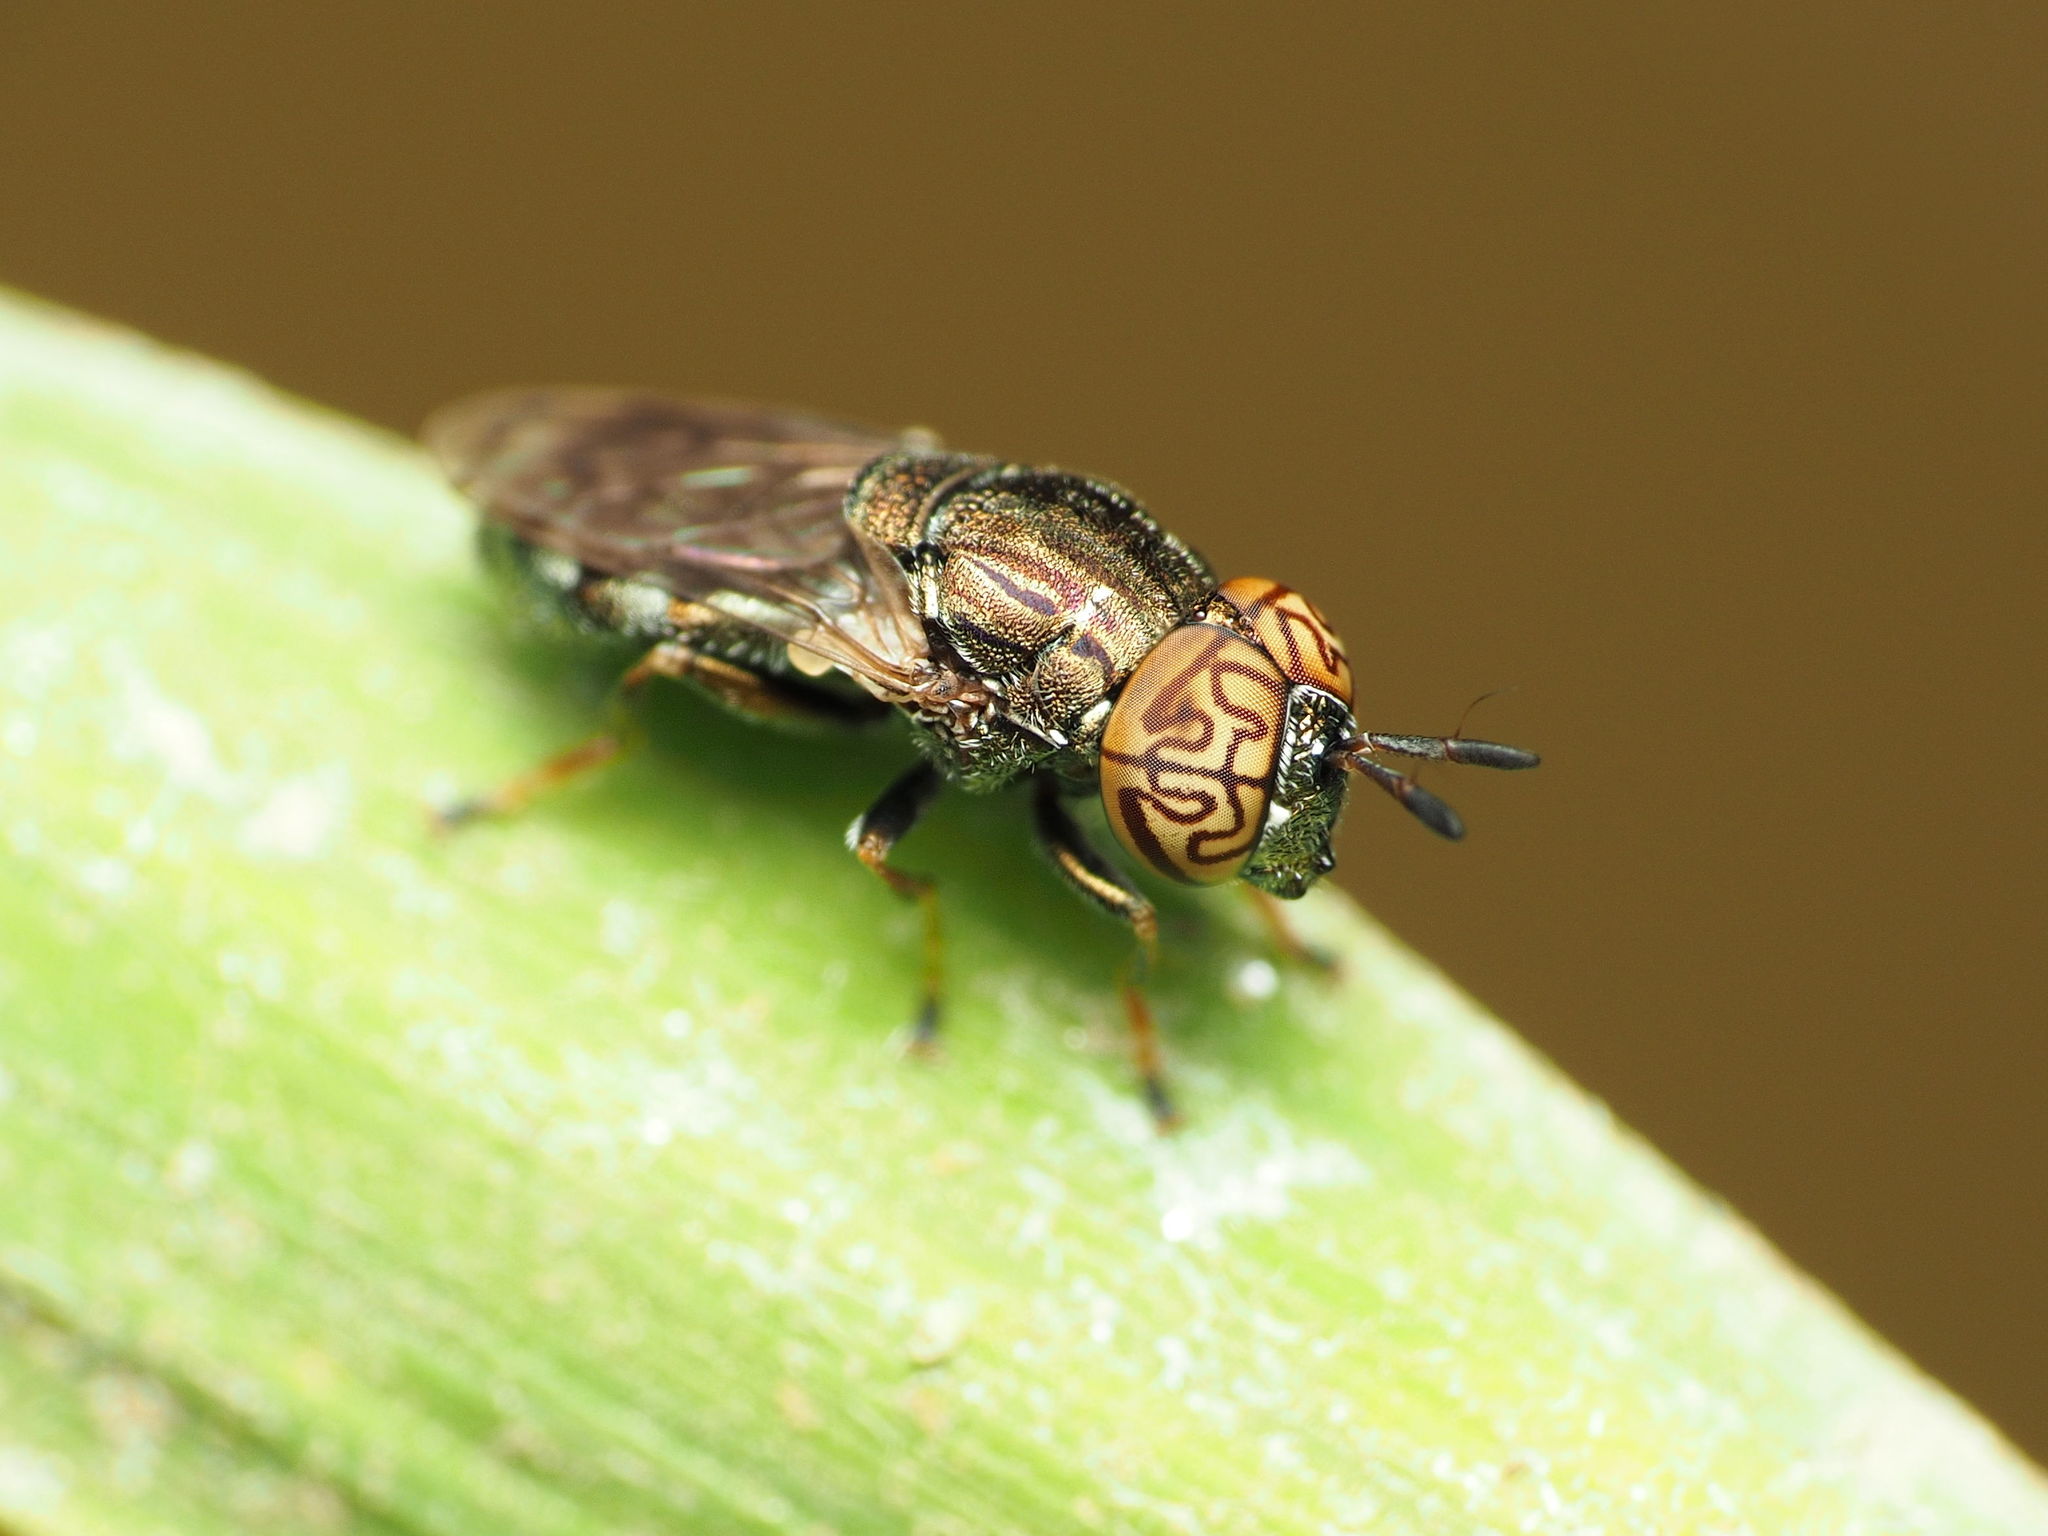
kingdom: Animalia
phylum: Arthropoda
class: Insecta
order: Diptera
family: Syrphidae
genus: Orthonevra
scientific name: Orthonevra nitida
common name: Wavy mucksucker
